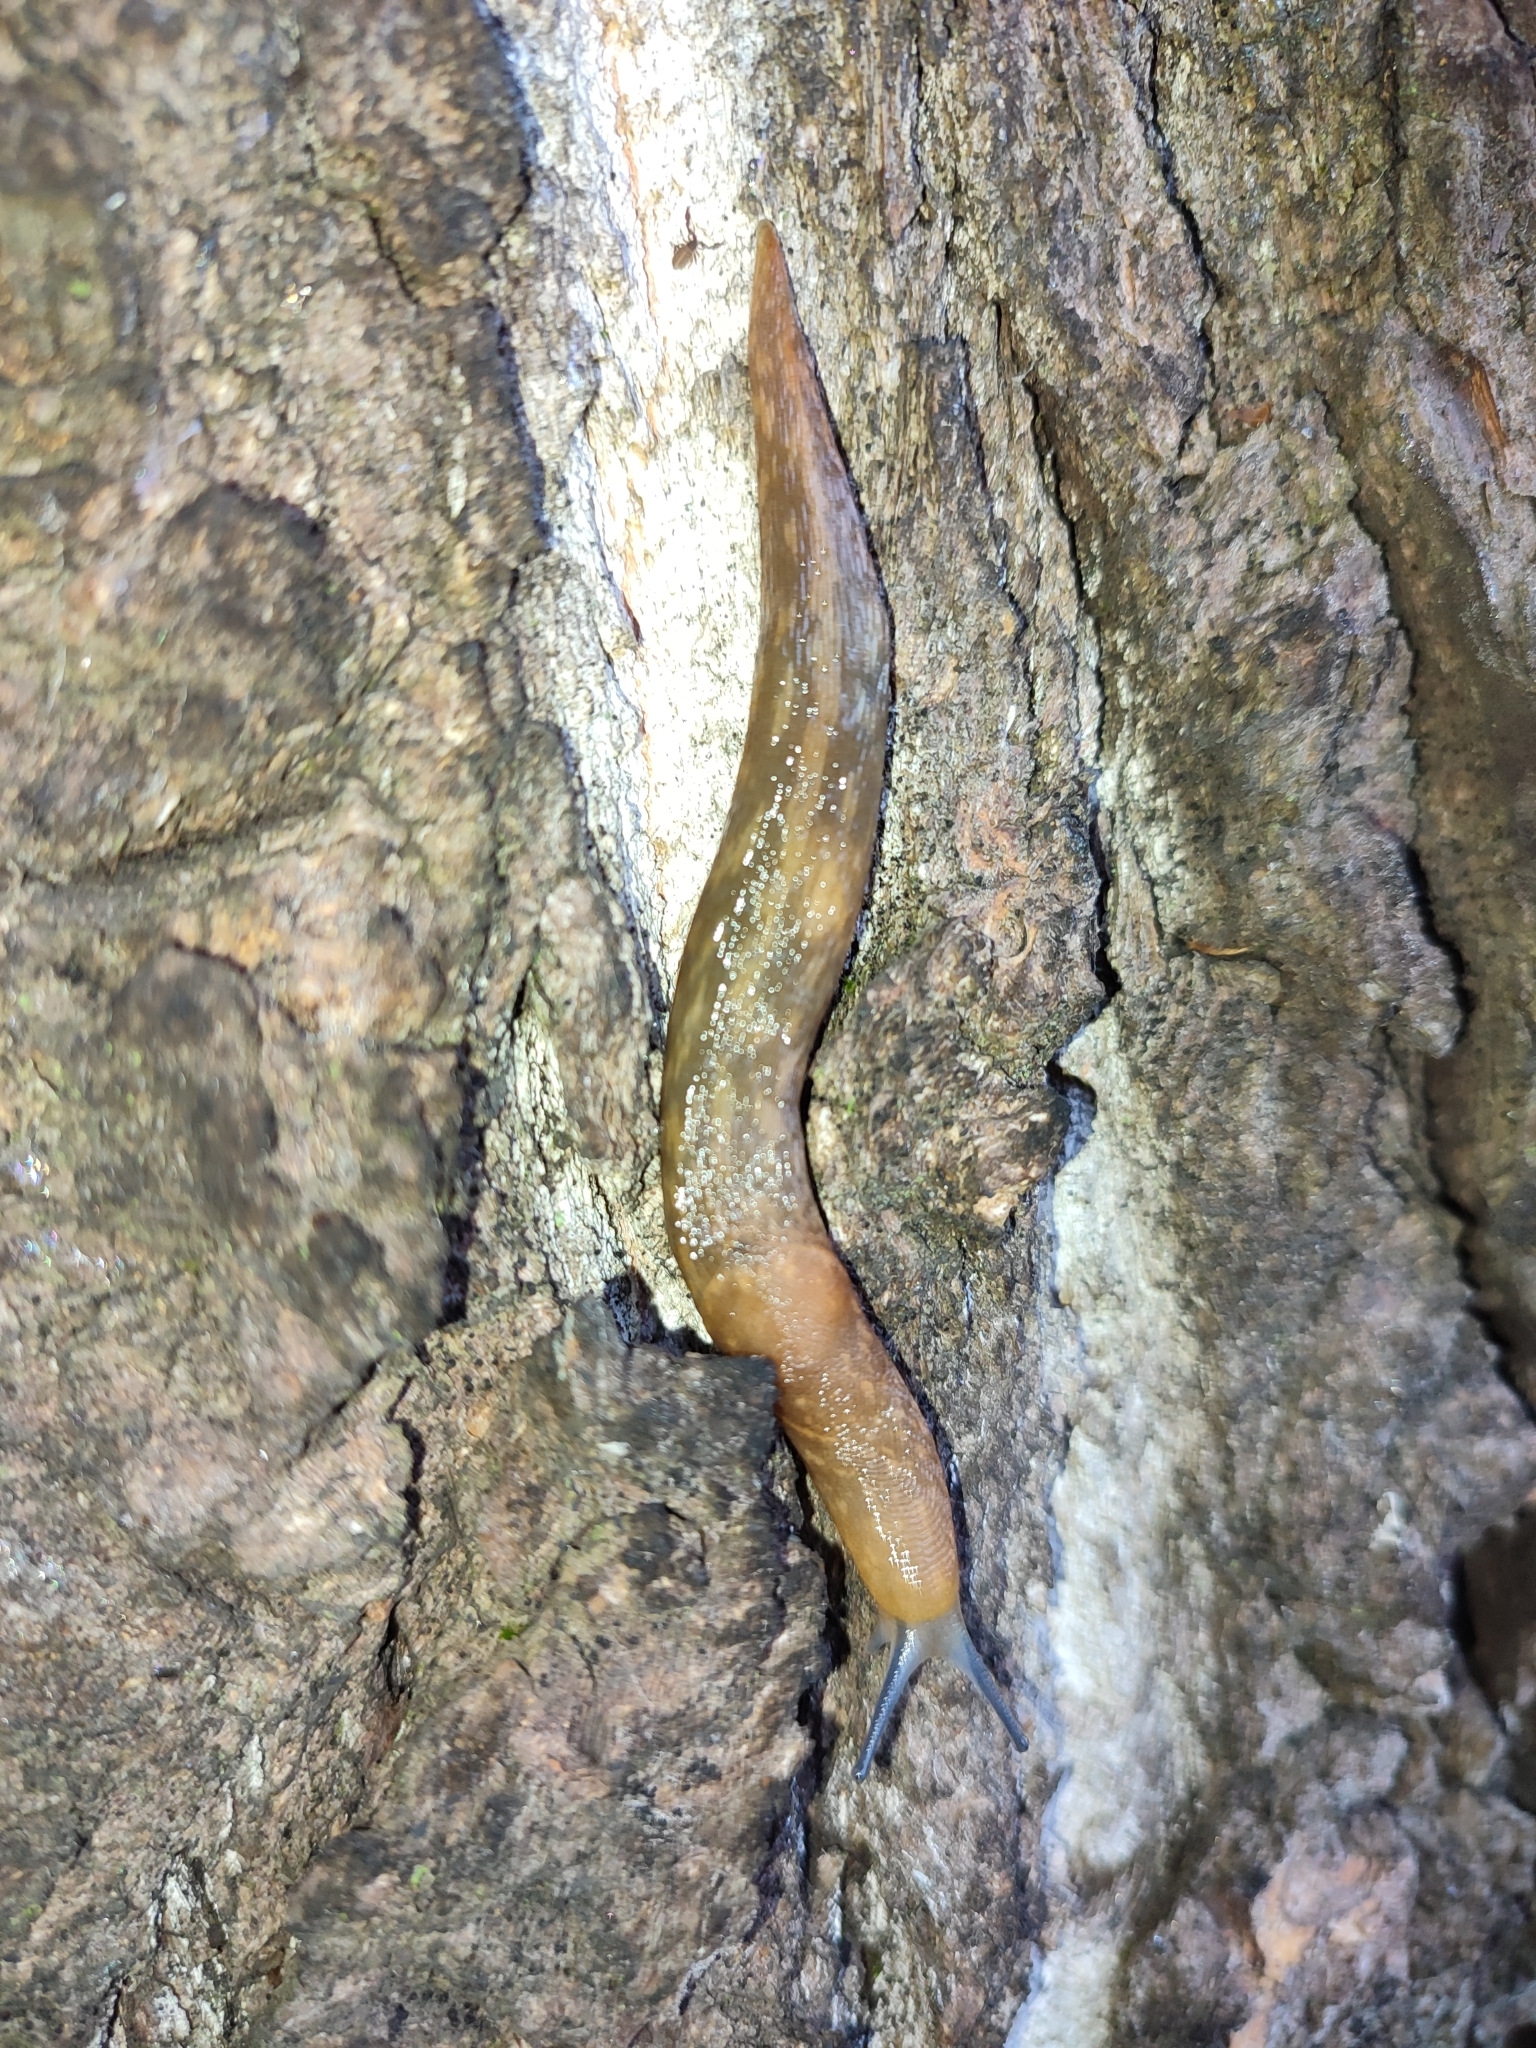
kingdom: Animalia
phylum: Mollusca
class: Gastropoda
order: Stylommatophora
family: Limacidae
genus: Limacus
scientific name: Limacus flavus
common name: Yellow gardenslug
